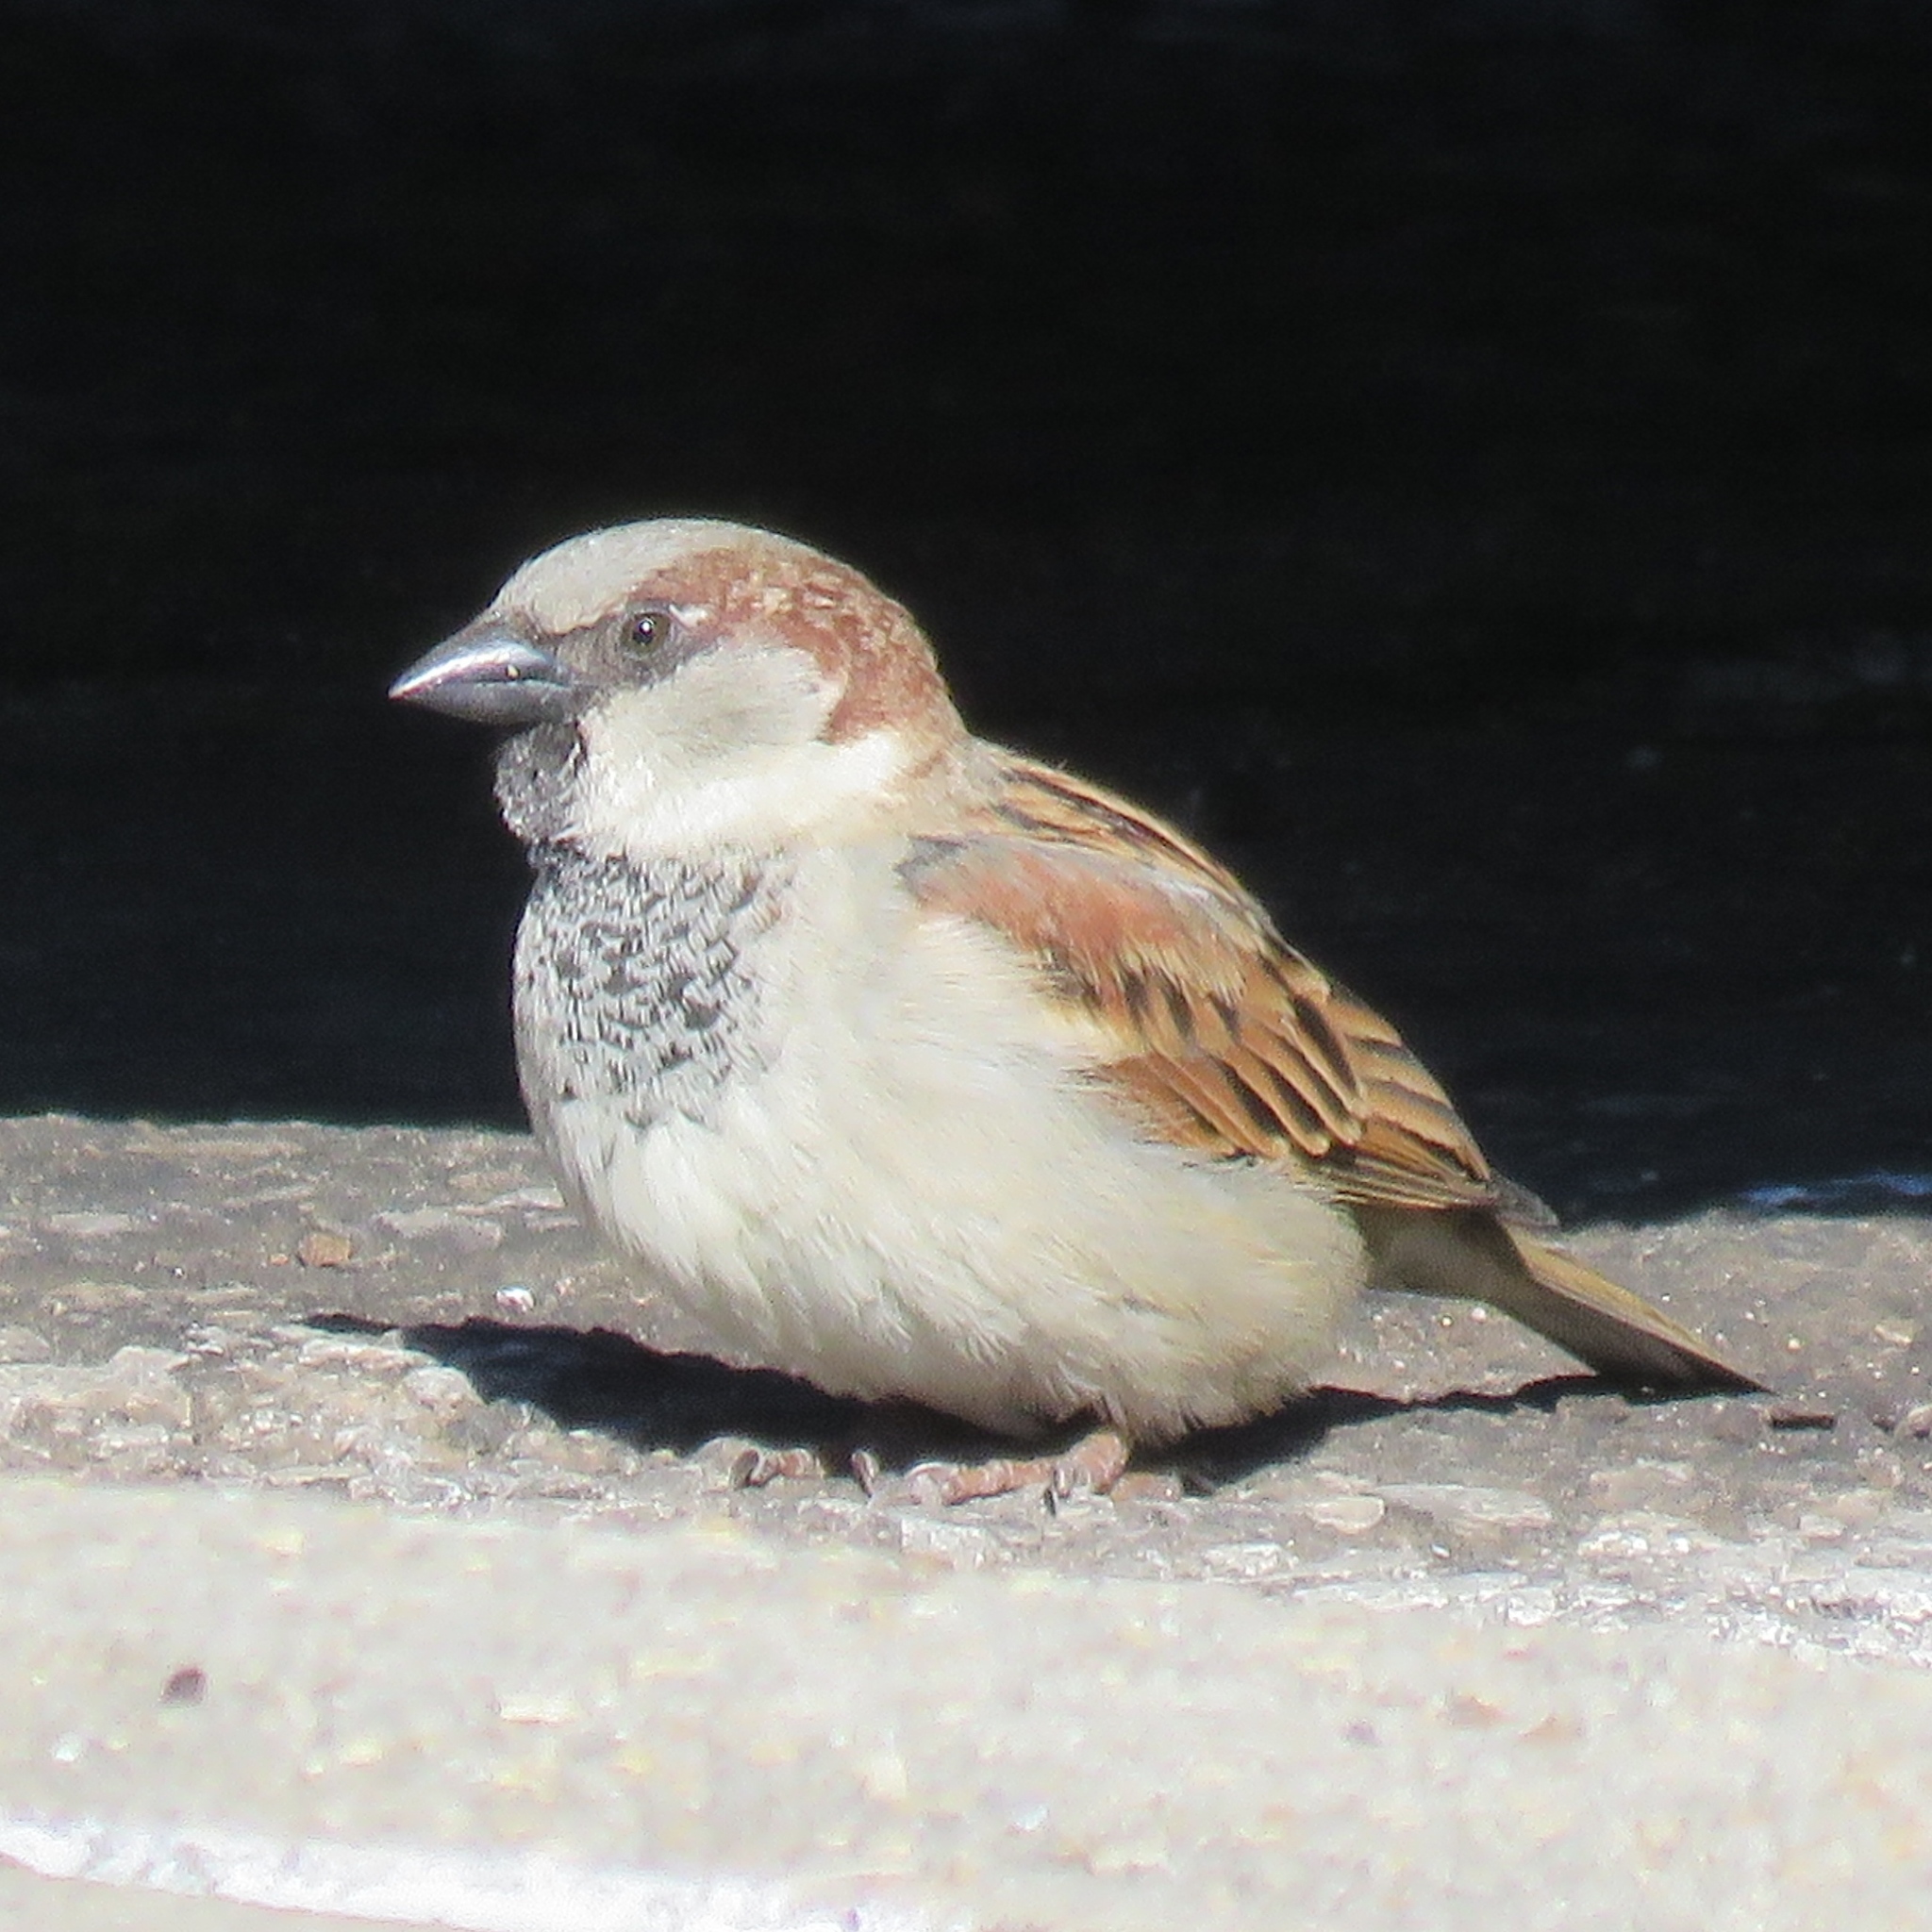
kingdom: Animalia
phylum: Chordata
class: Aves
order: Passeriformes
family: Passeridae
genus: Passer
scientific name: Passer domesticus
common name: House sparrow
